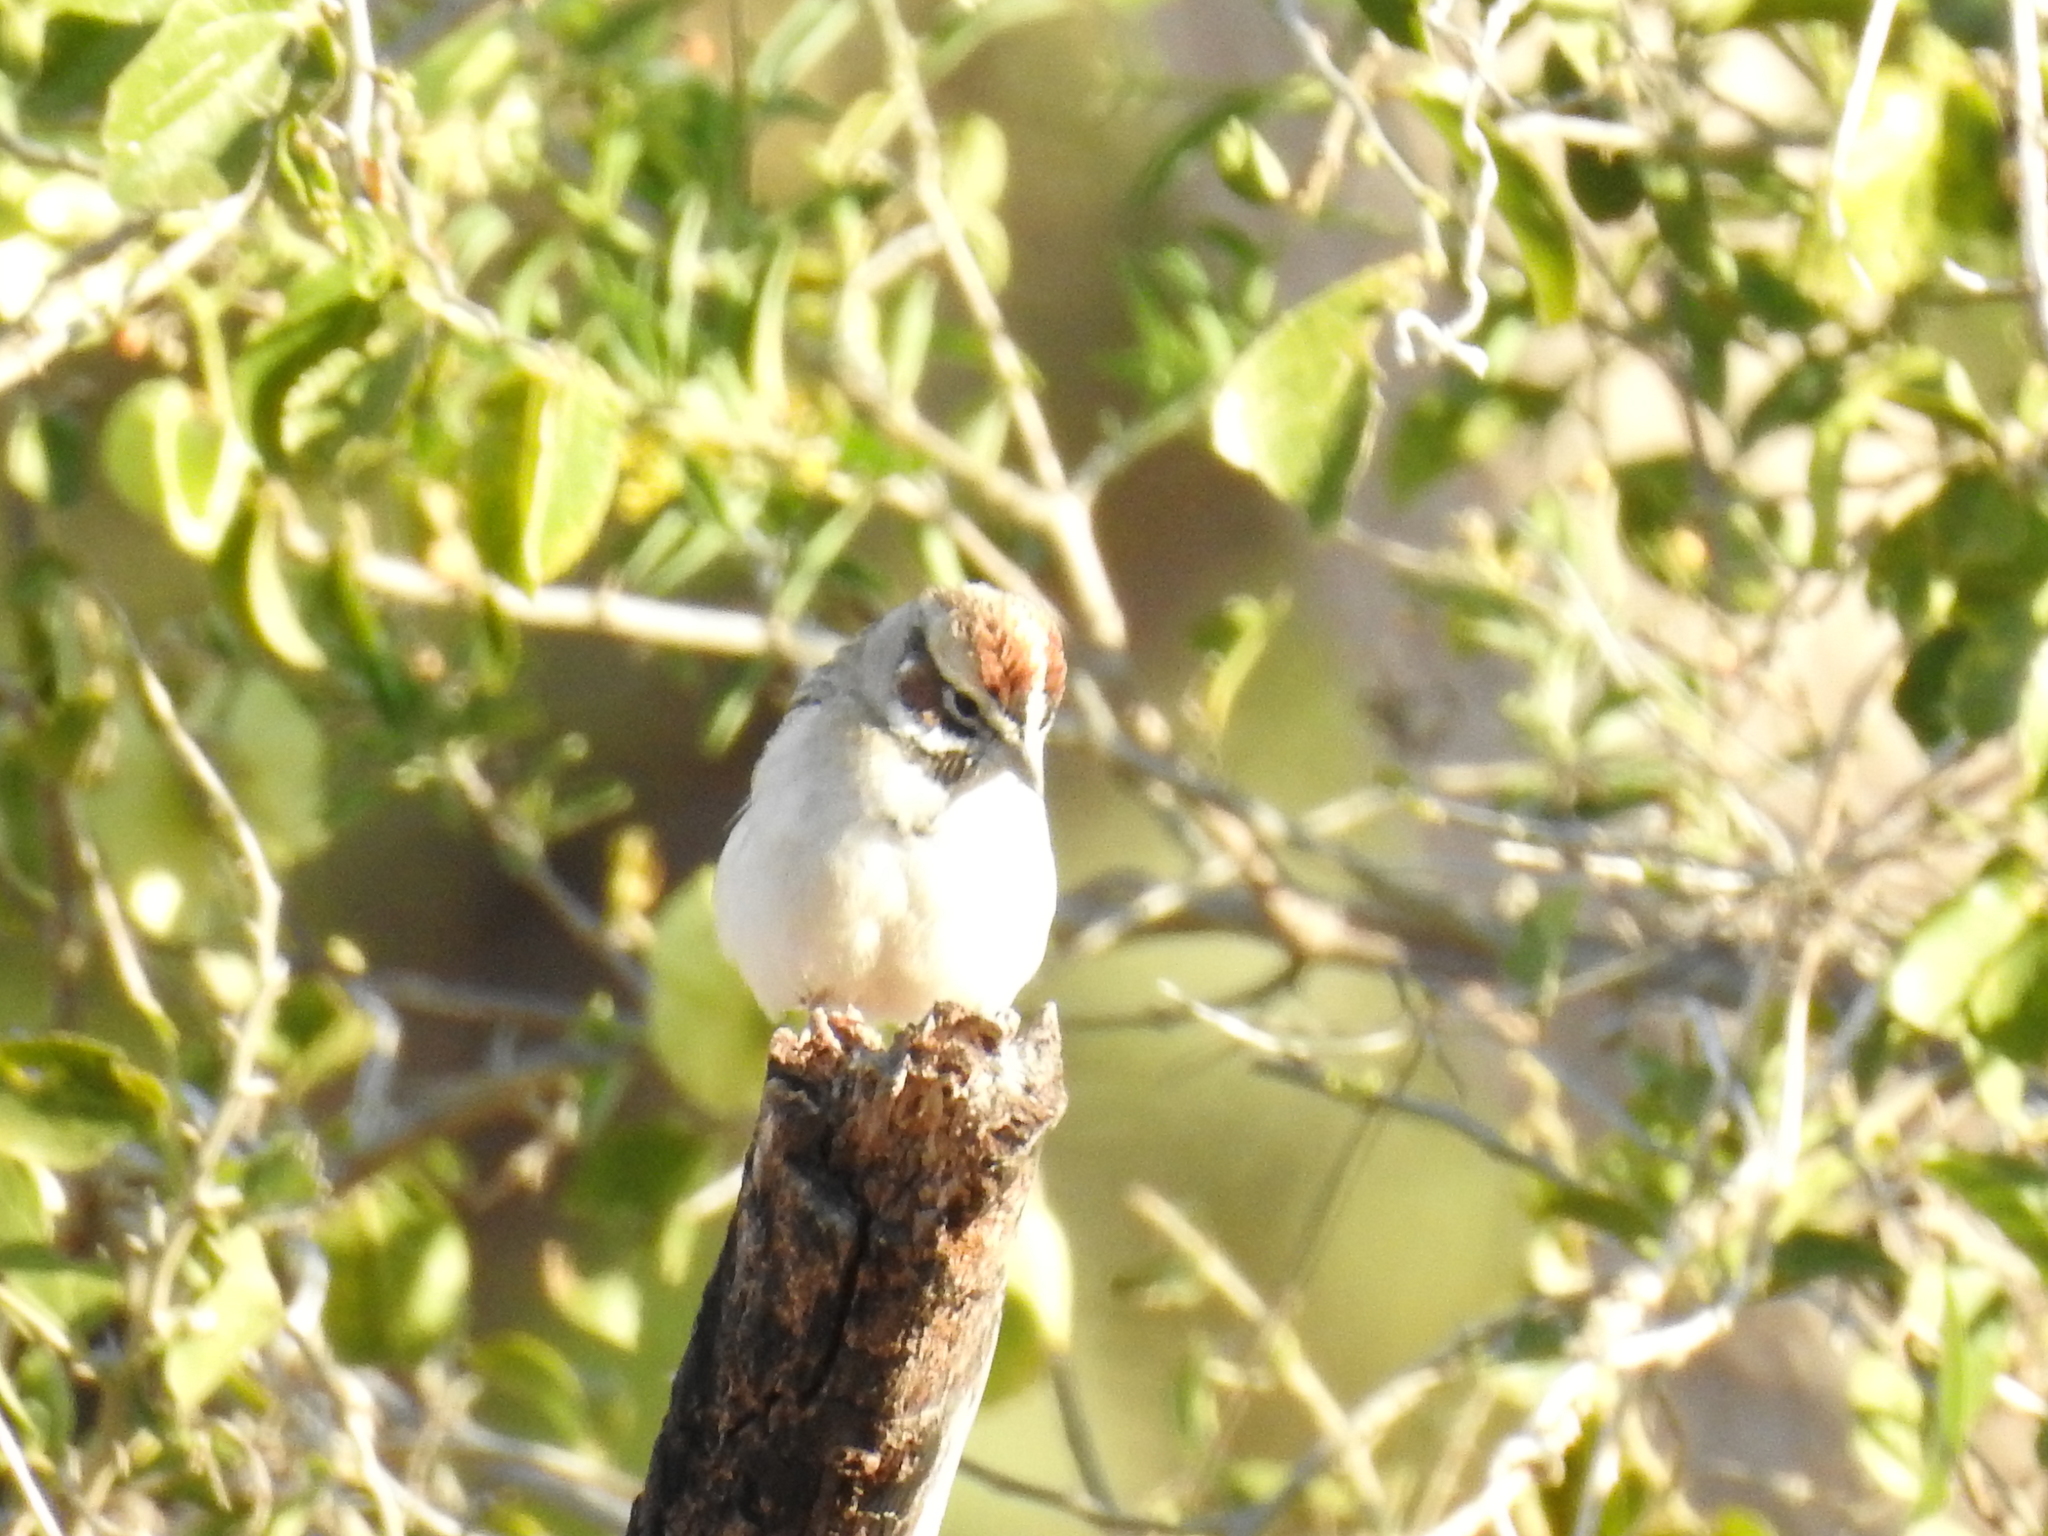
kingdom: Animalia
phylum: Chordata
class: Aves
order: Passeriformes
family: Passerellidae
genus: Chondestes
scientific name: Chondestes grammacus
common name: Lark sparrow
